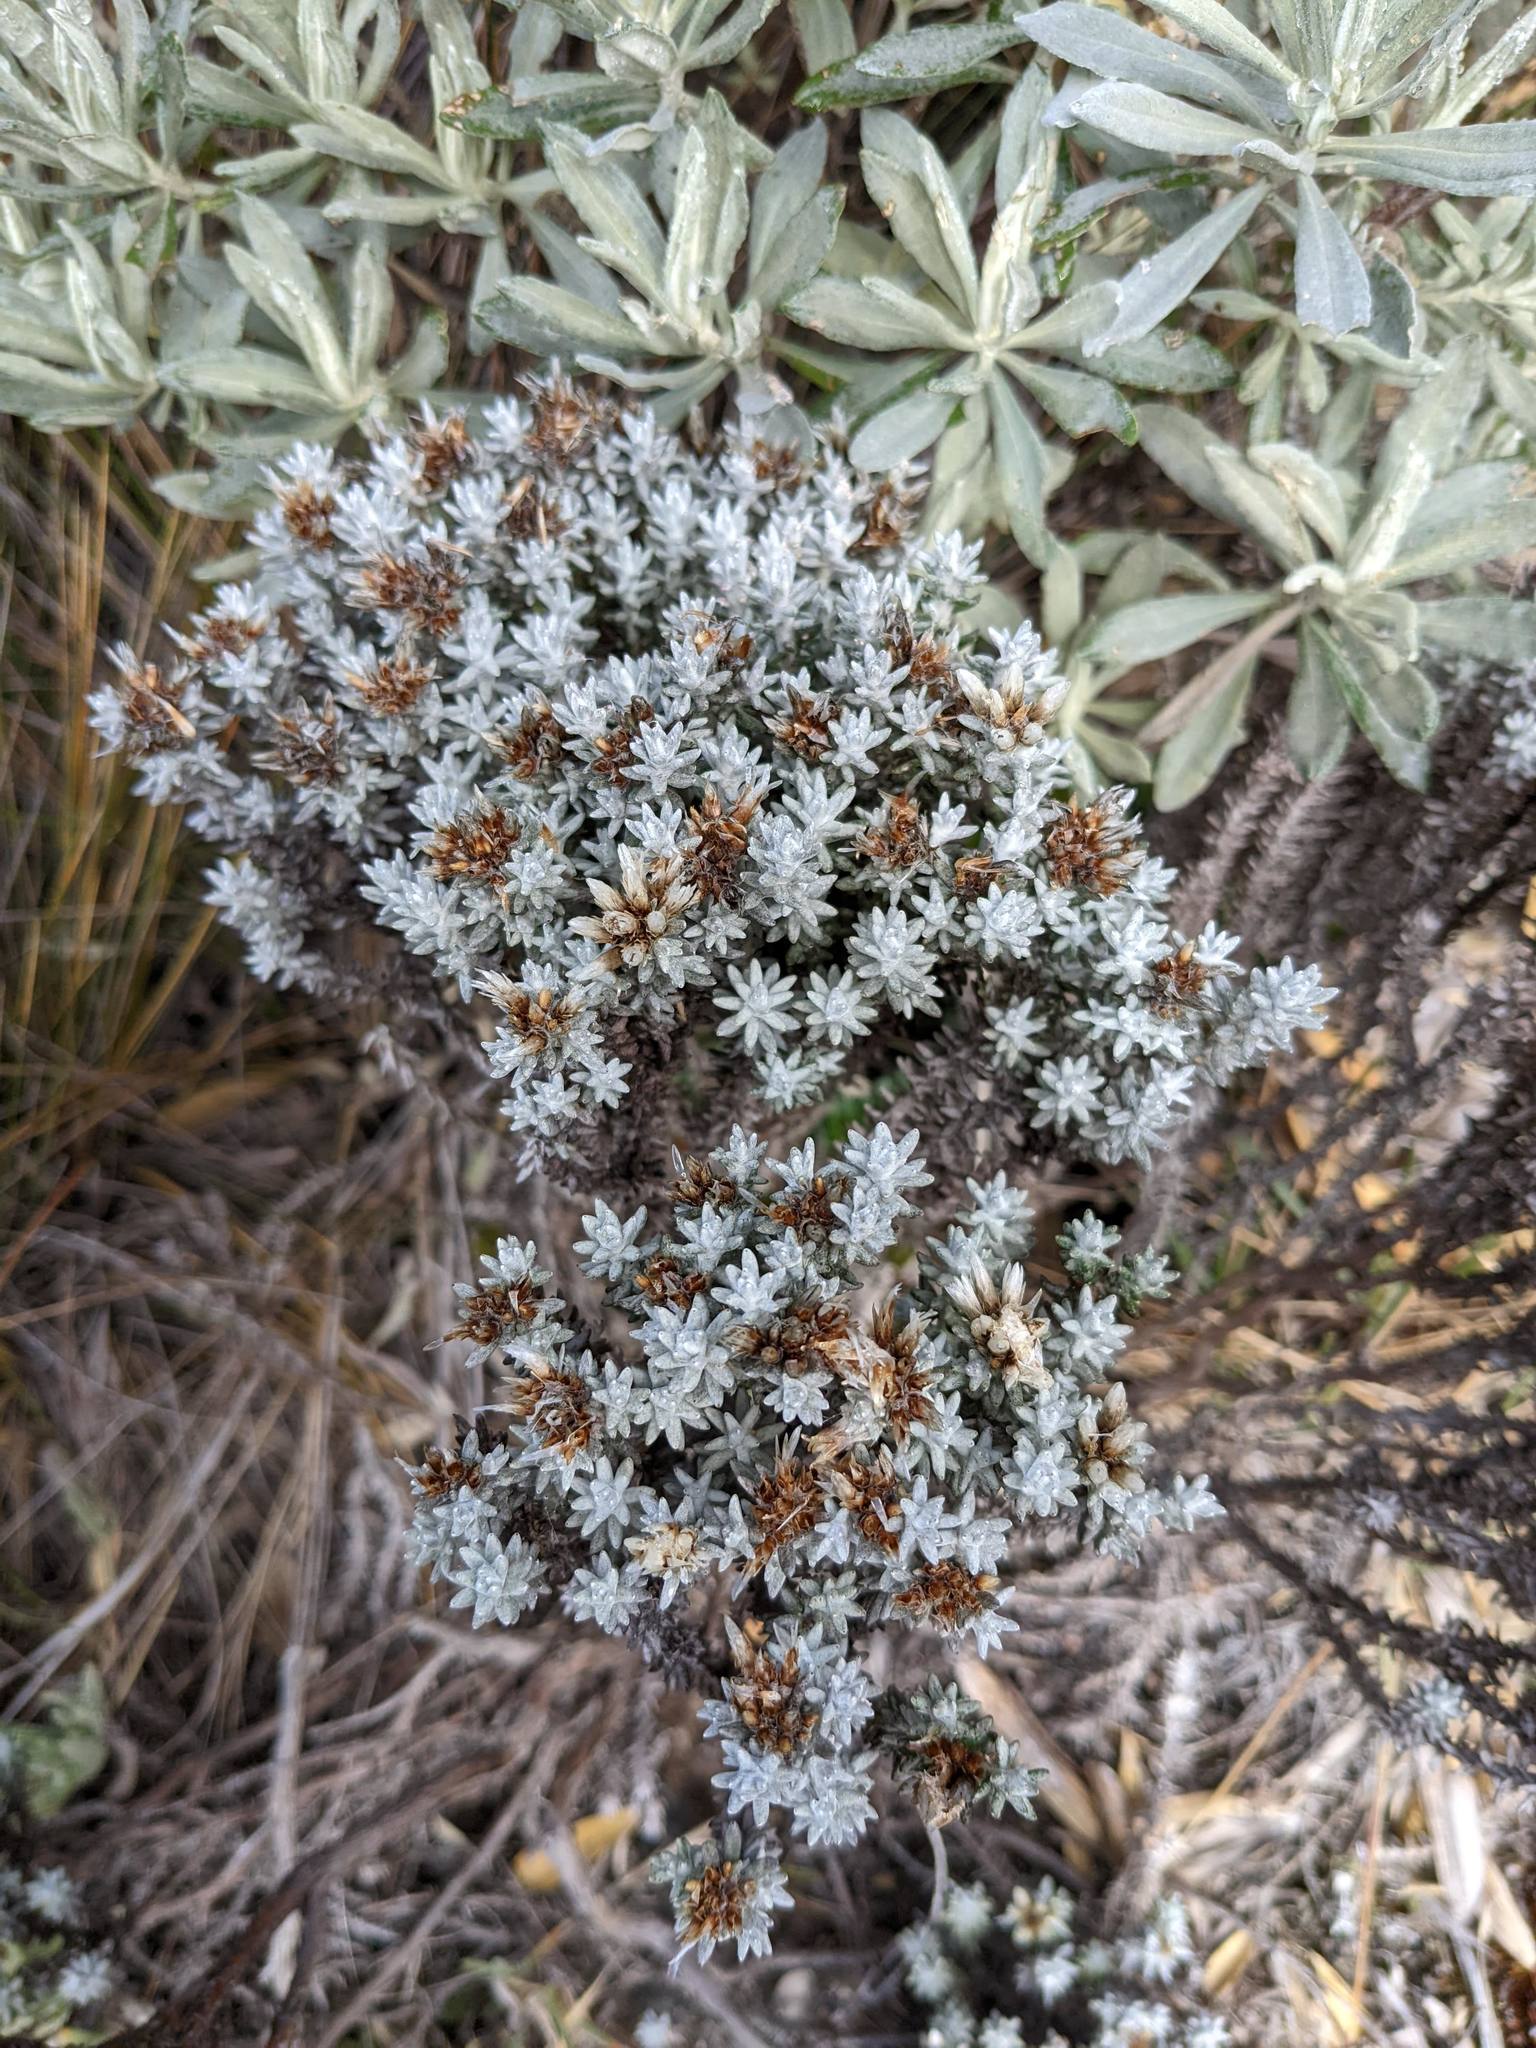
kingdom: Plantae
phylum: Tracheophyta
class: Magnoliopsida
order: Asterales
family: Asteraceae
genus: Gnaphaliothamnus
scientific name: Gnaphaliothamnus lavandulifolius
